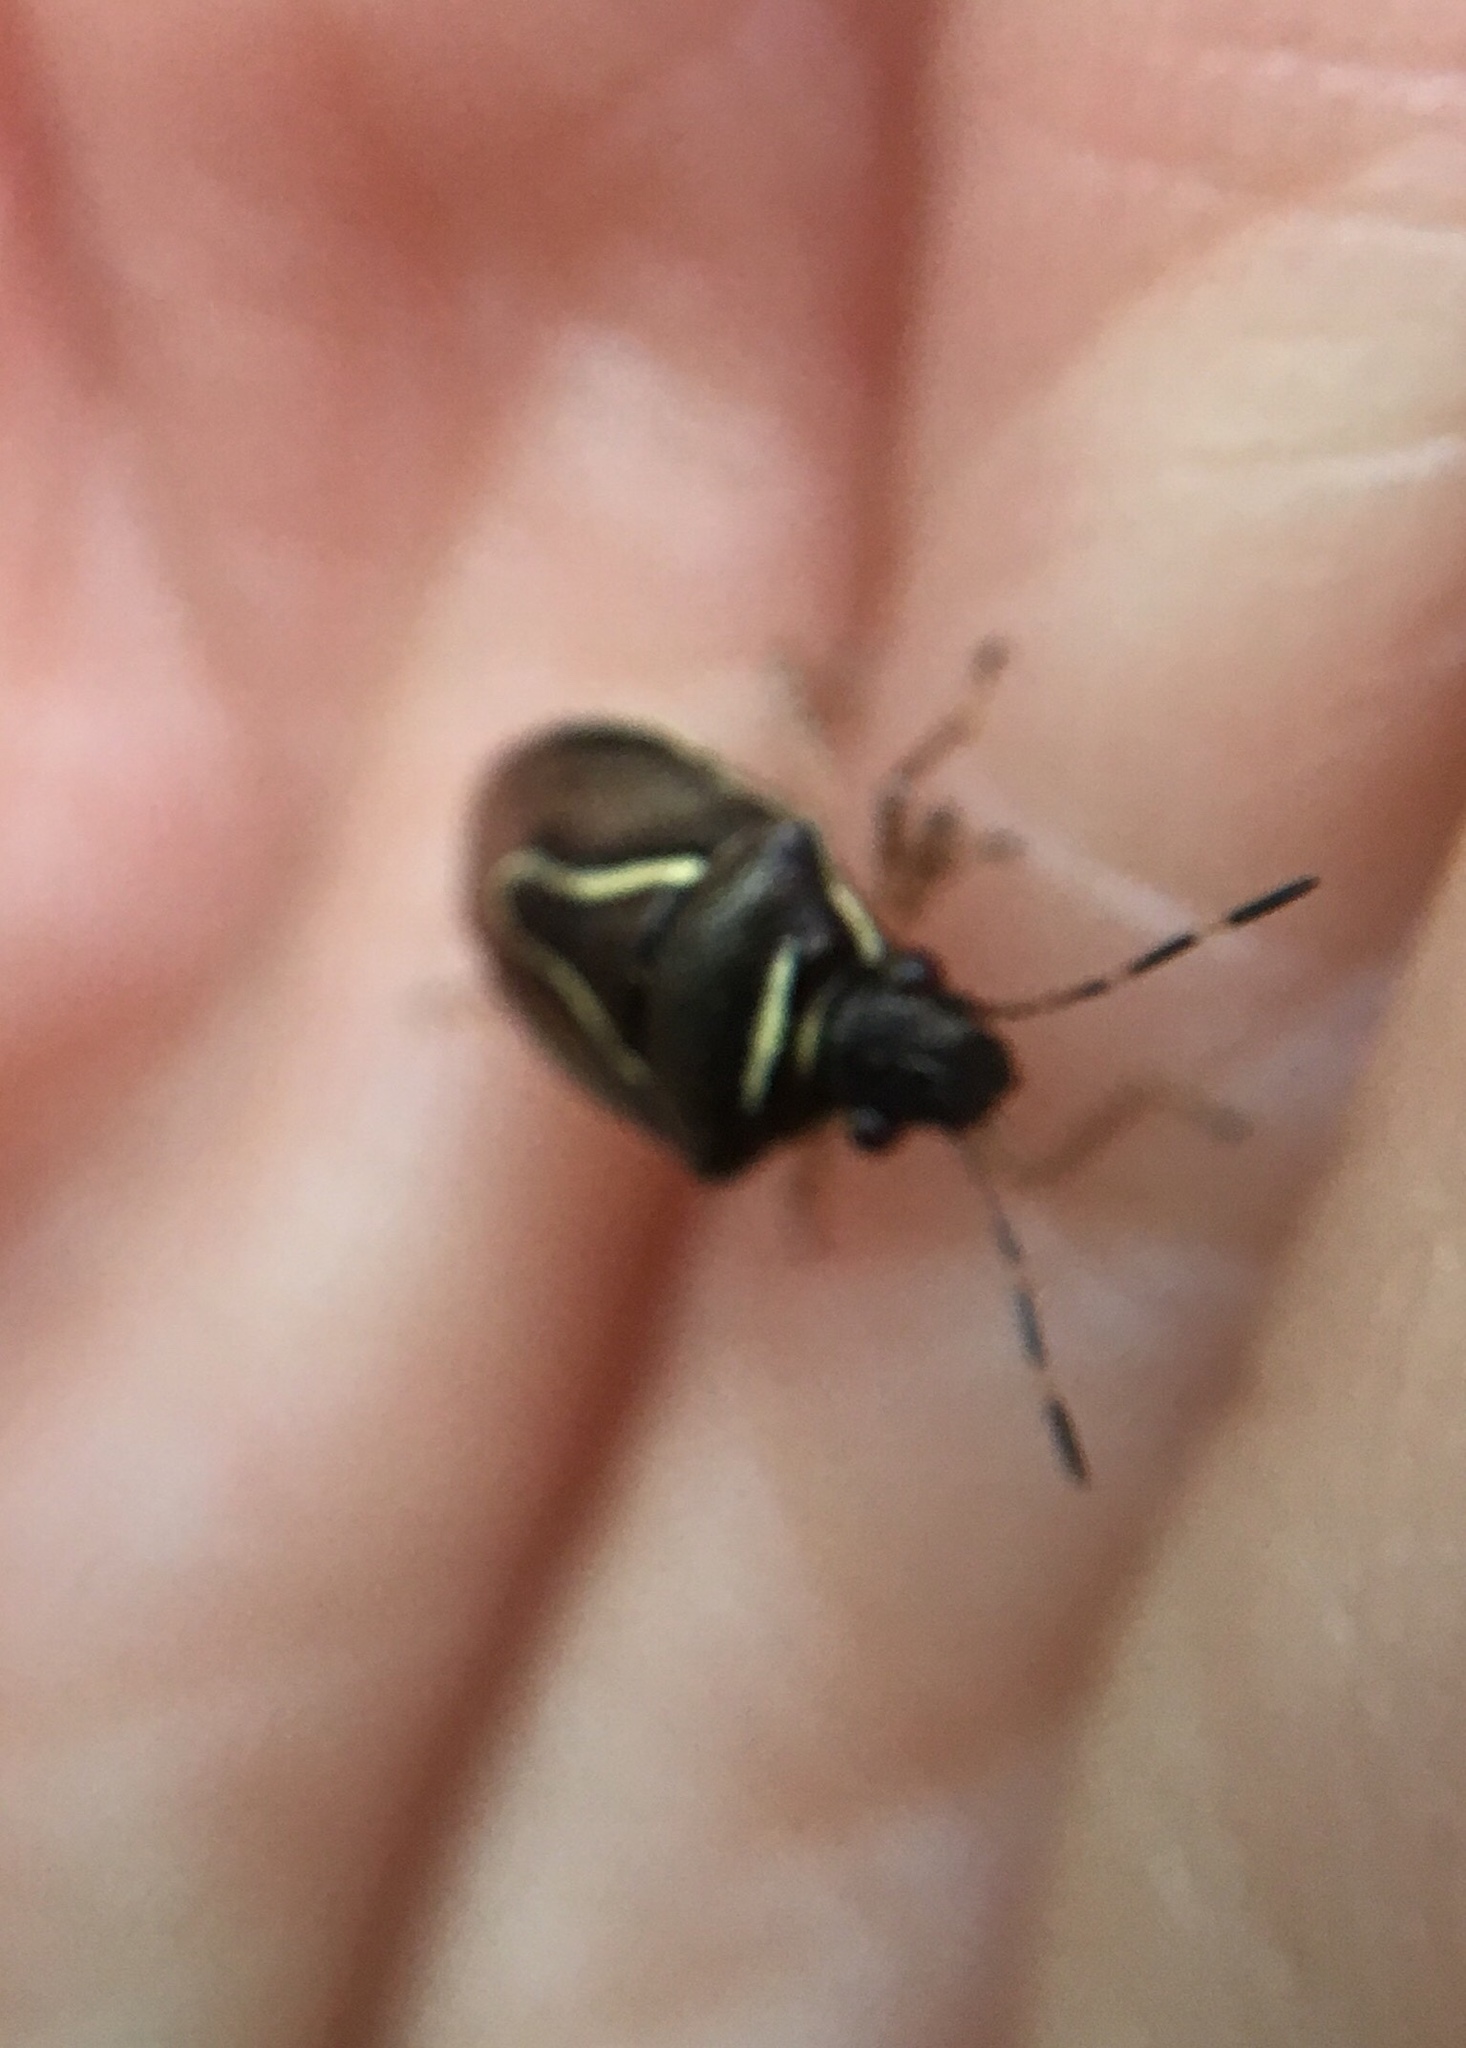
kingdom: Animalia
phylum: Arthropoda
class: Insecta
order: Hemiptera
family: Pentatomidae
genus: Mormidea
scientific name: Mormidea lugens
